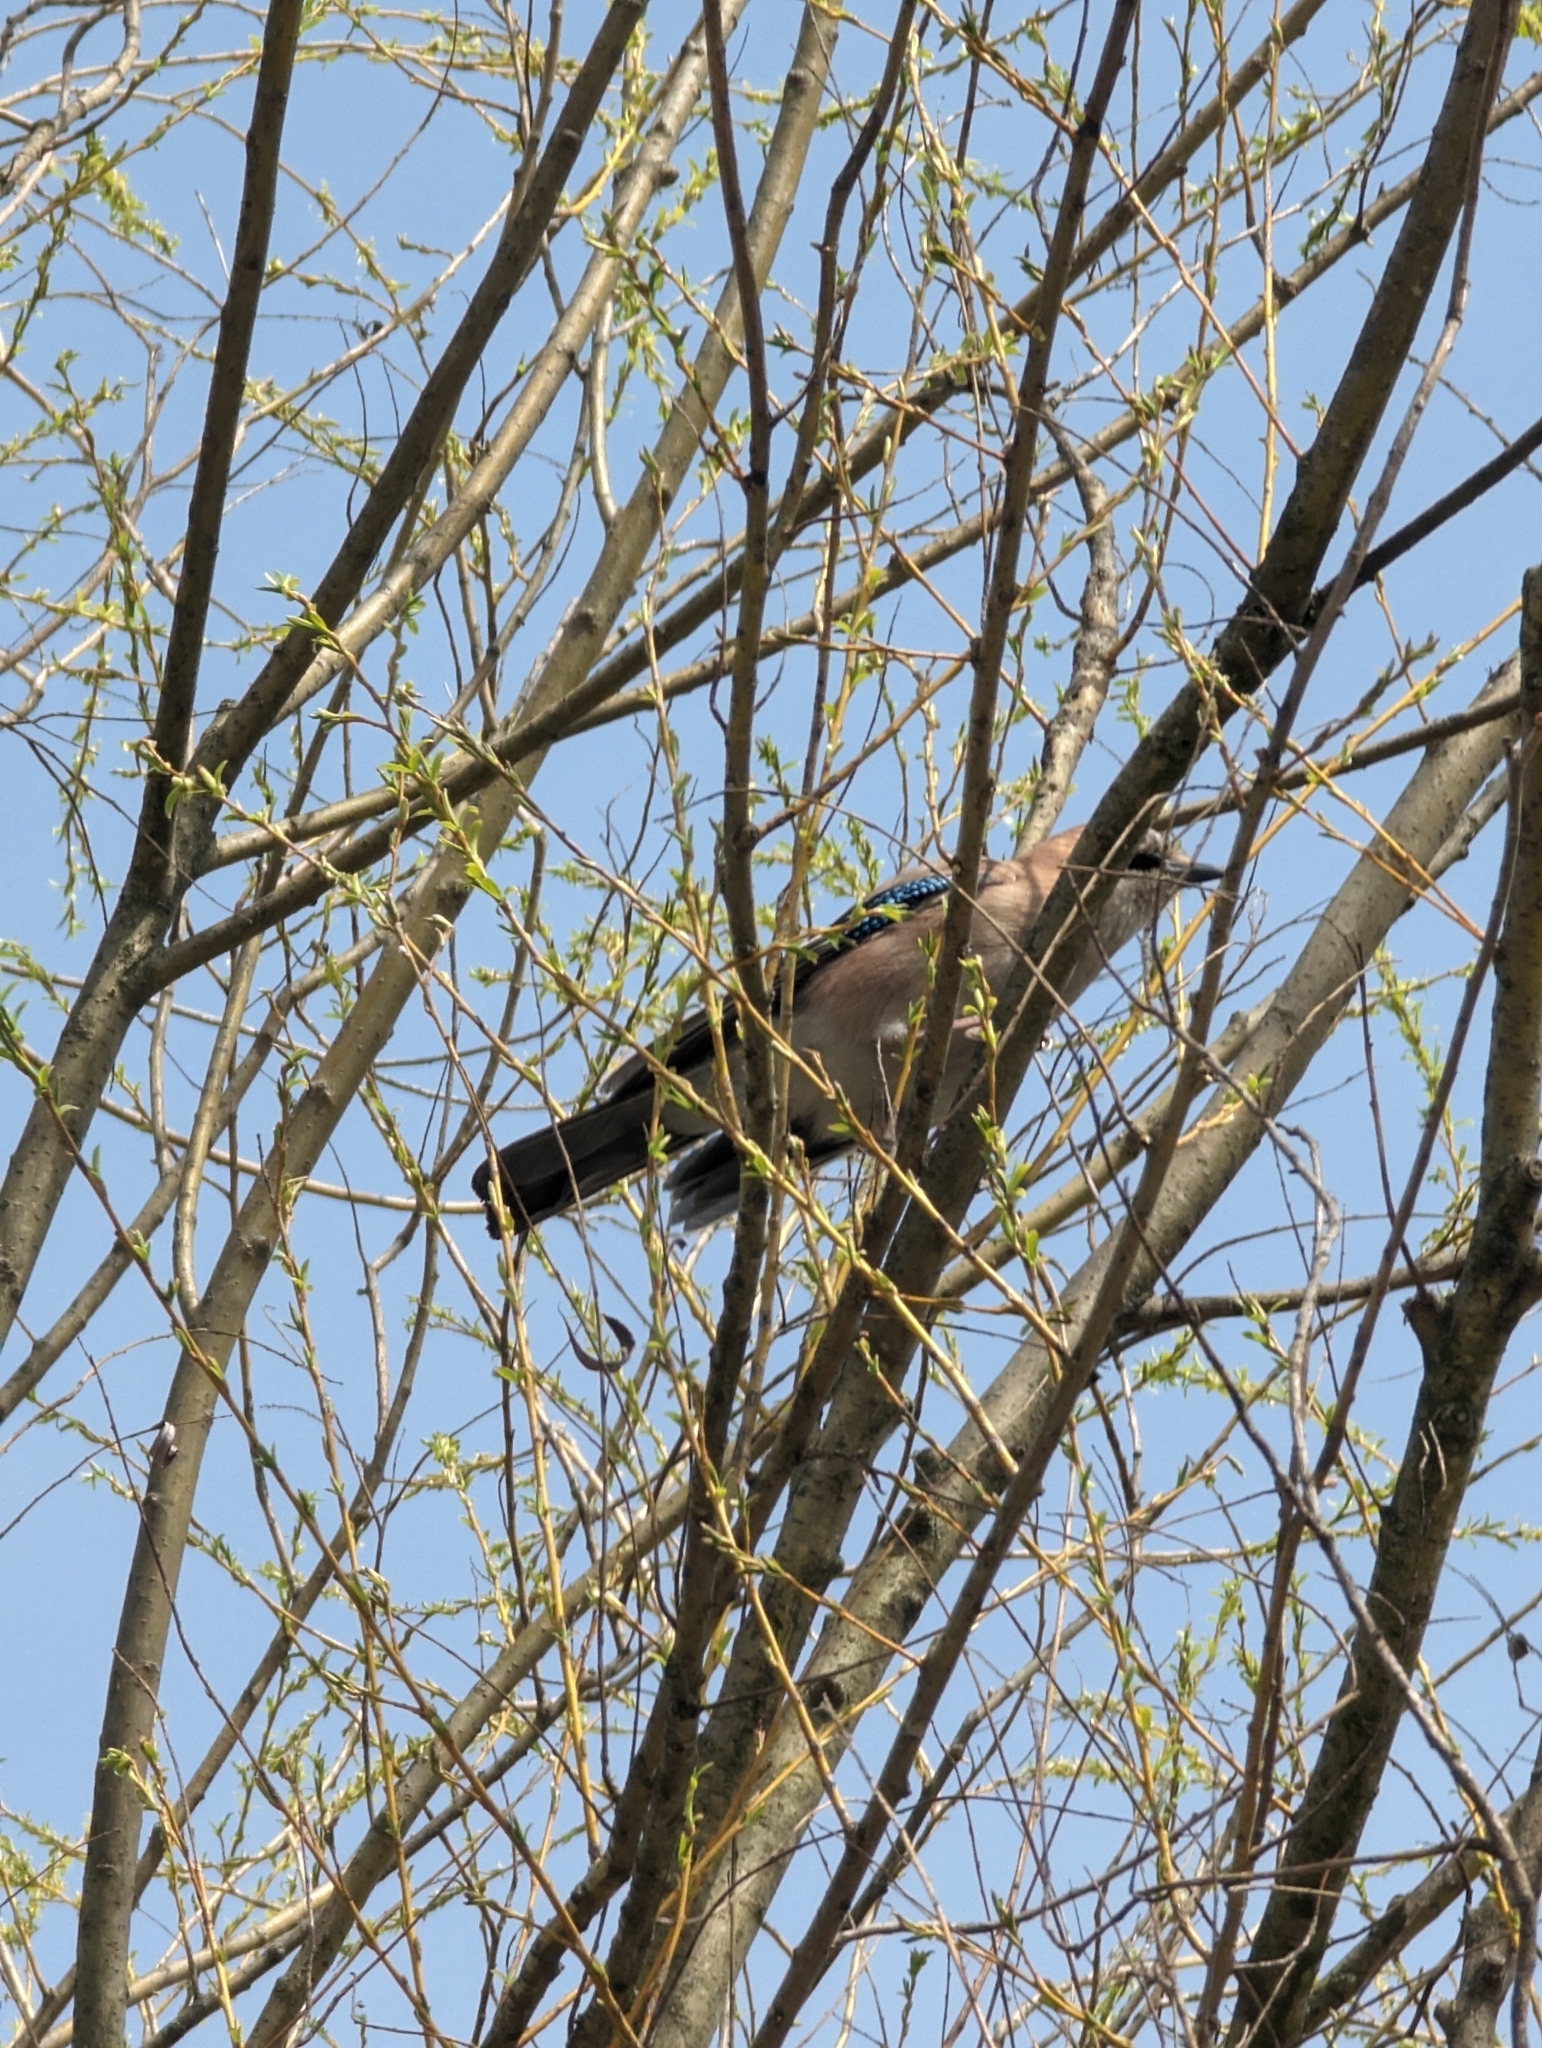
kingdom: Animalia
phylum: Chordata
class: Aves
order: Passeriformes
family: Corvidae
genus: Garrulus
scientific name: Garrulus glandarius
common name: Eurasian jay
